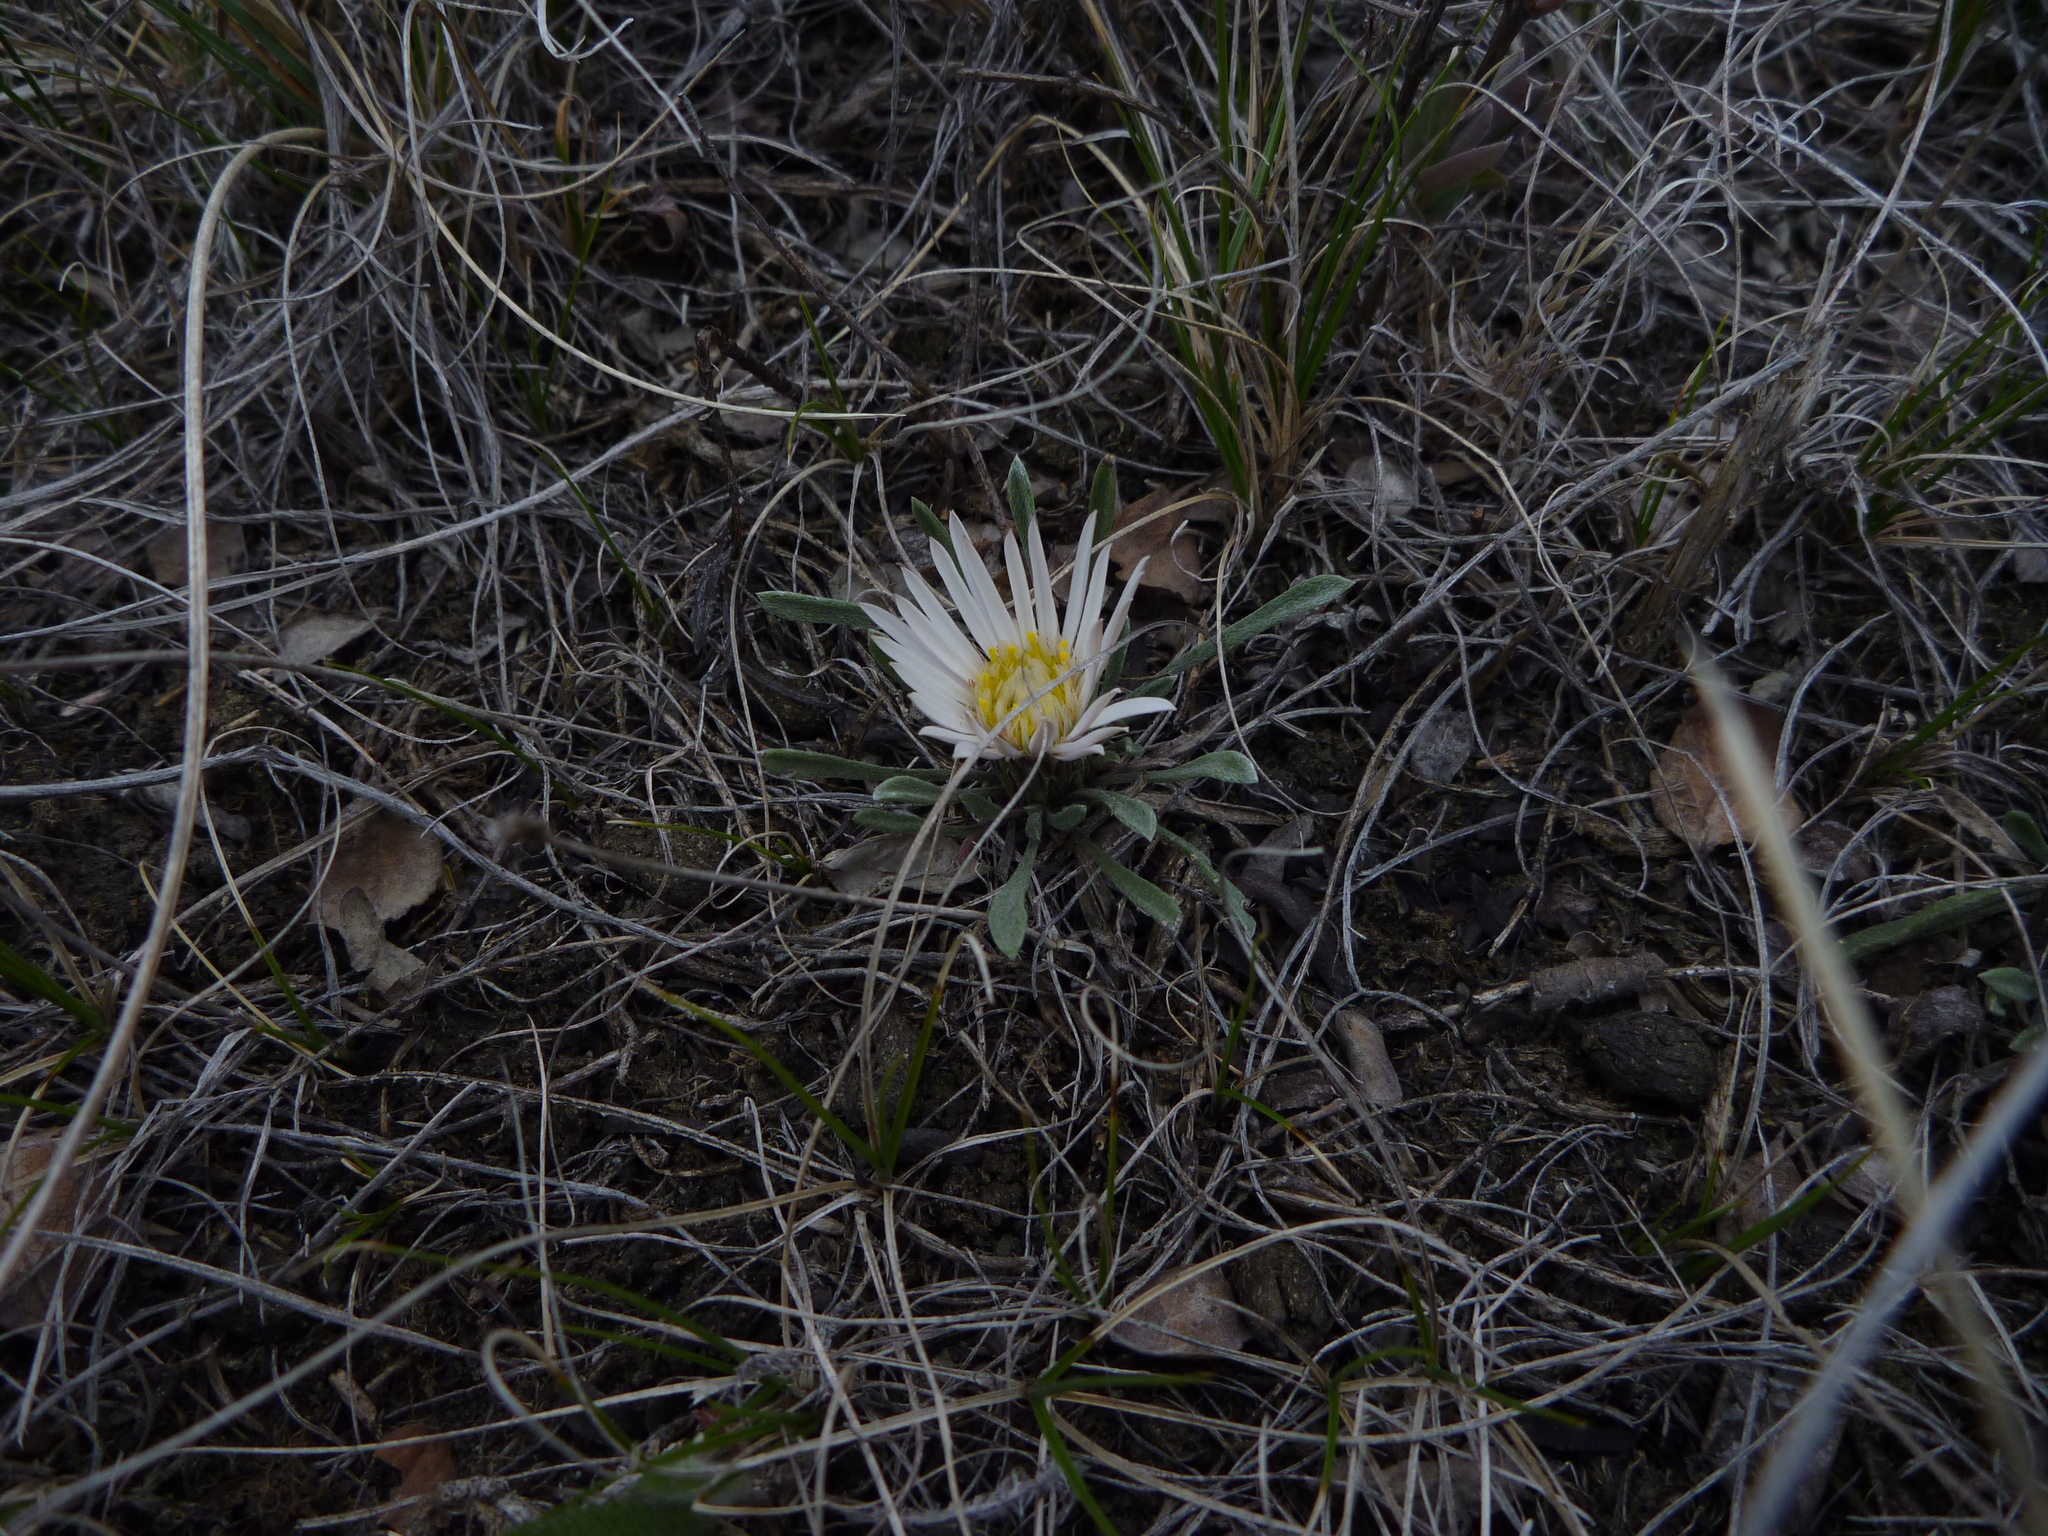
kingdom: Plantae
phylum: Tracheophyta
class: Magnoliopsida
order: Asterales
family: Asteraceae
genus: Townsendia
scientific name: Townsendia exscapa
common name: Dwarf townsendia
